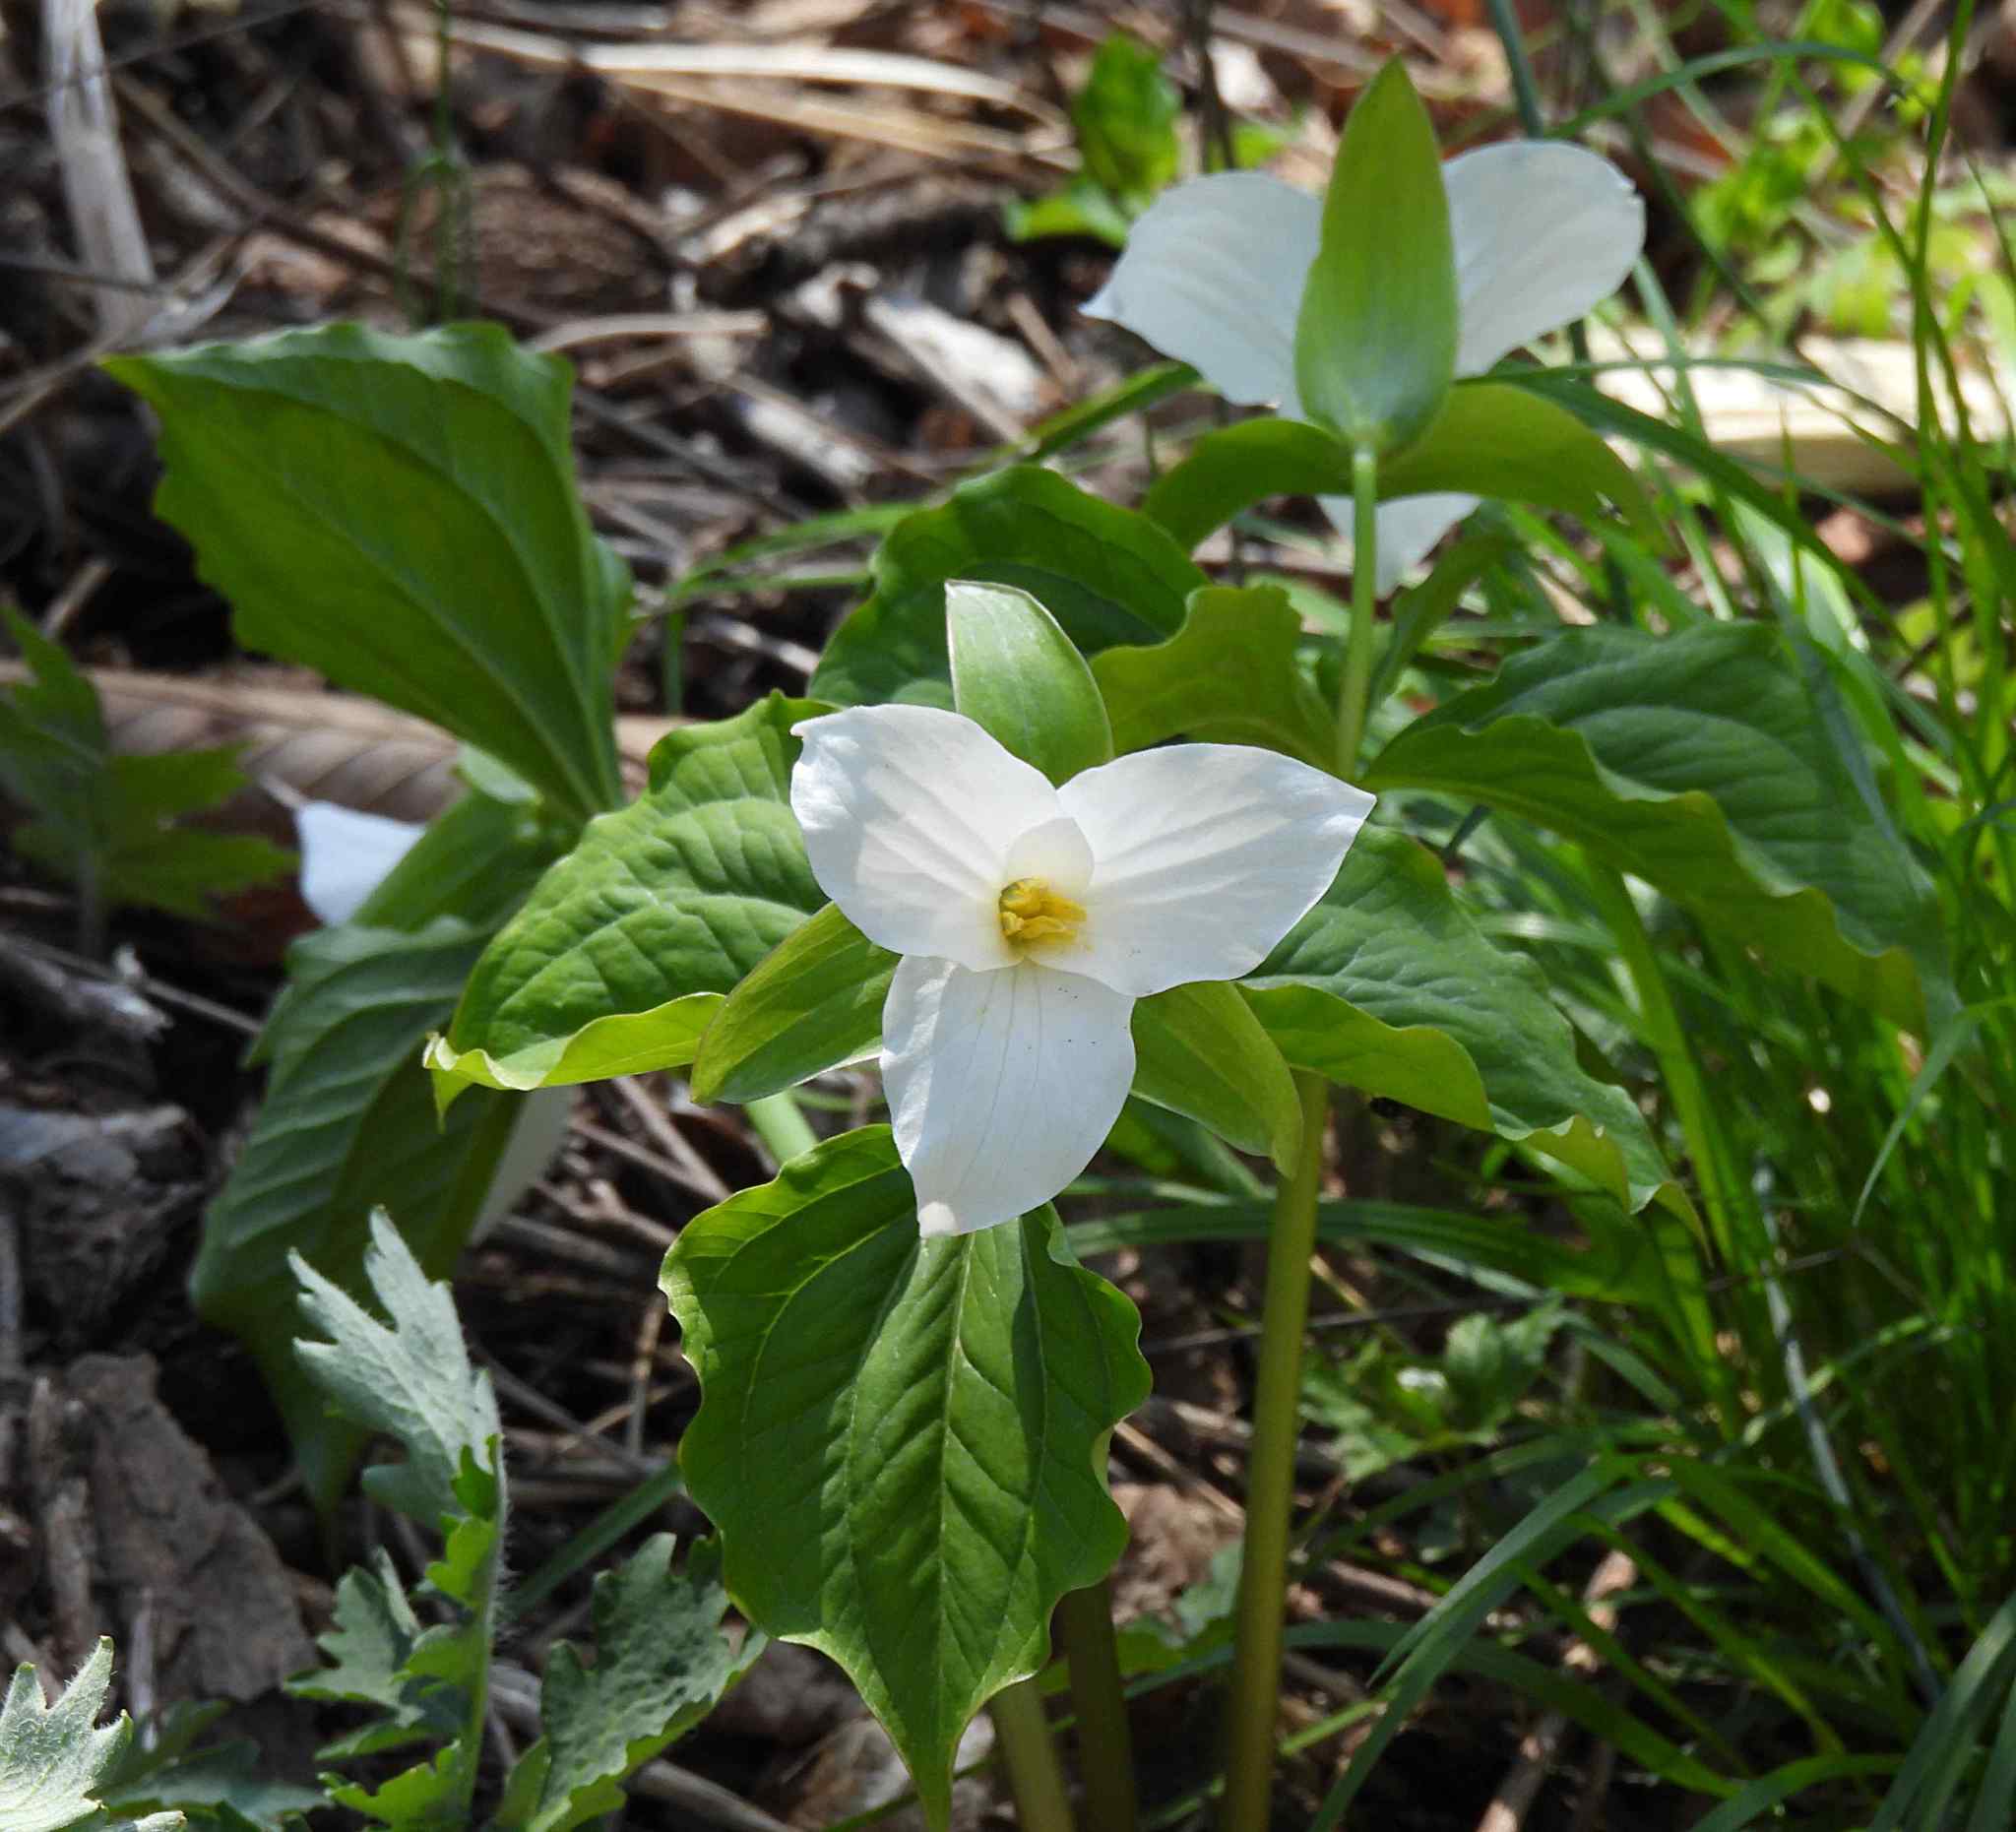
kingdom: Plantae
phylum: Tracheophyta
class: Liliopsida
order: Liliales
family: Melanthiaceae
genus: Trillium
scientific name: Trillium grandiflorum
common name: Great white trillium
